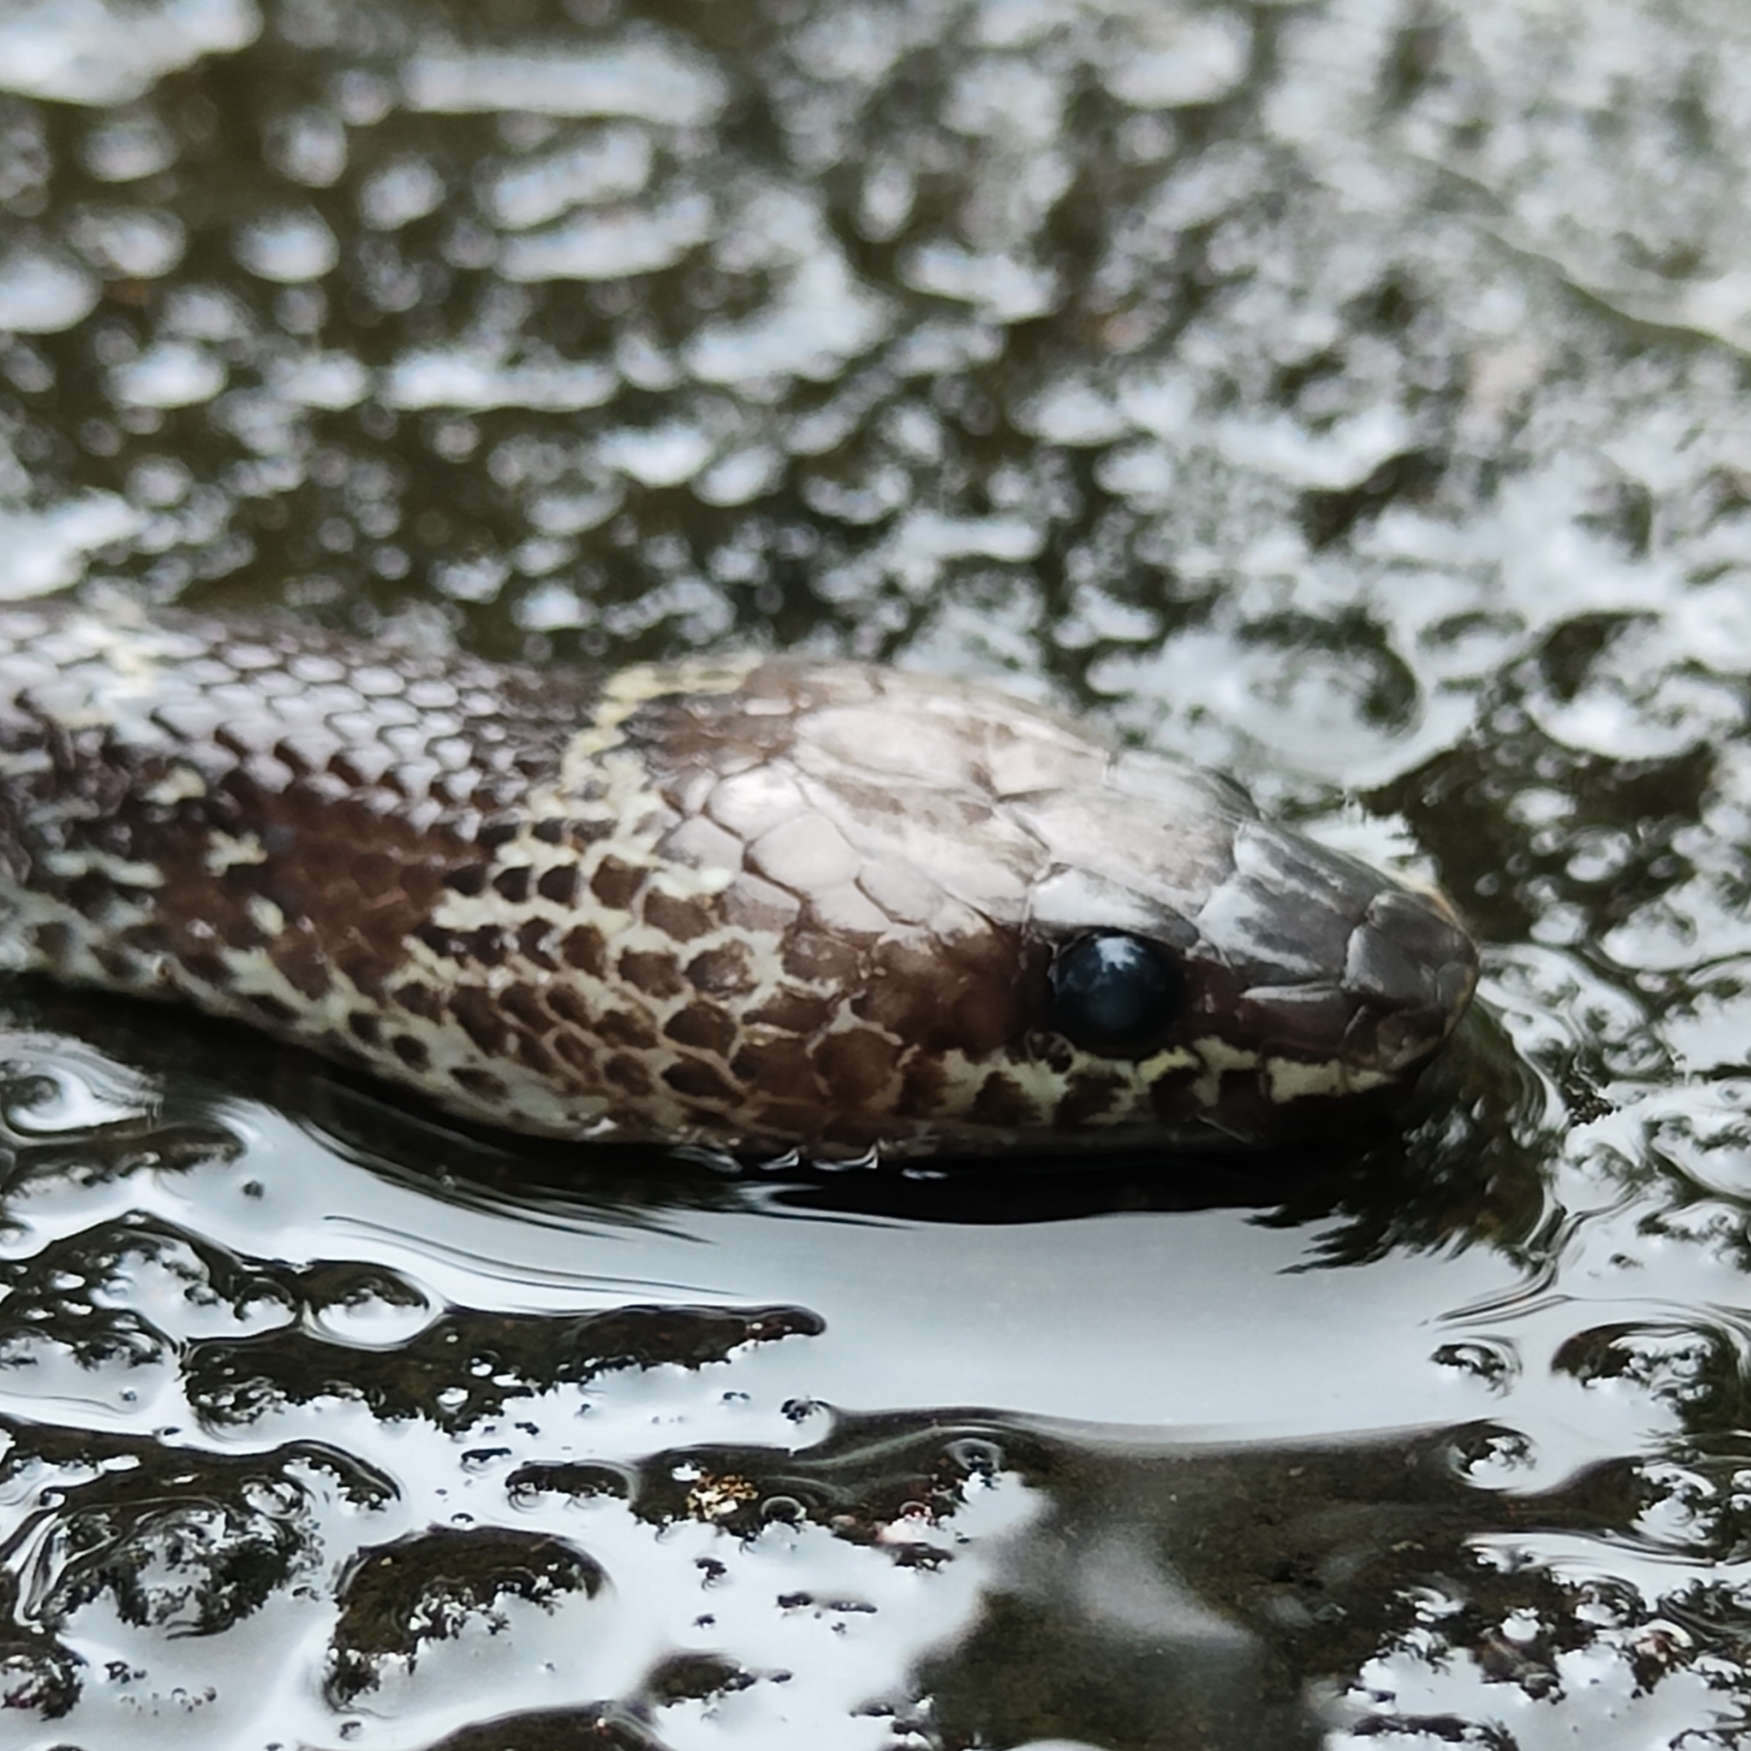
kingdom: Animalia
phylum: Chordata
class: Squamata
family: Colubridae
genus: Lycodon
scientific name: Lycodon capucinus
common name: Common wold snake/house snake
